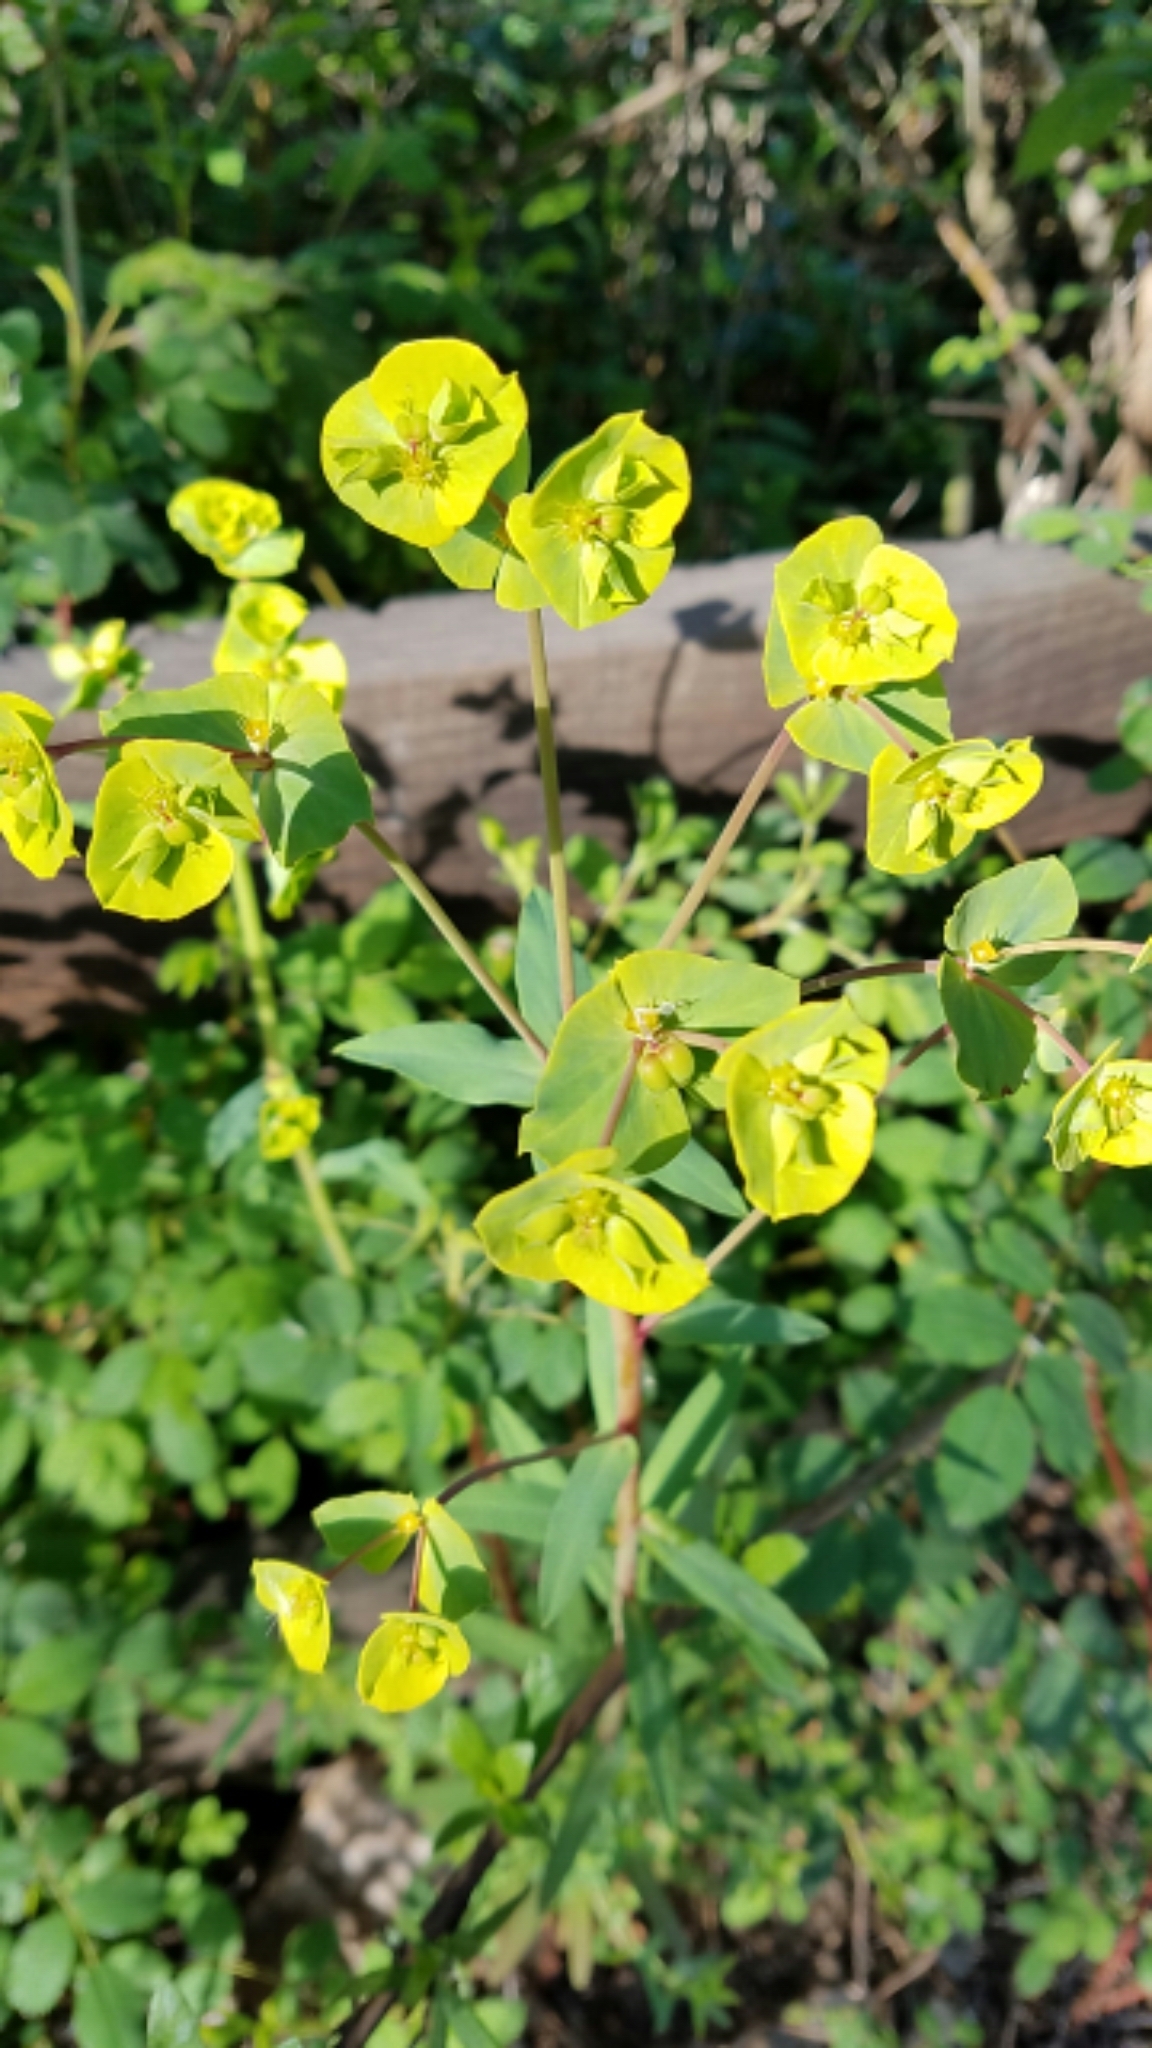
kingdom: Plantae
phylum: Tracheophyta
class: Magnoliopsida
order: Malpighiales
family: Euphorbiaceae
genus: Euphorbia
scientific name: Euphorbia terracina
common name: Geraldton carnation weed
